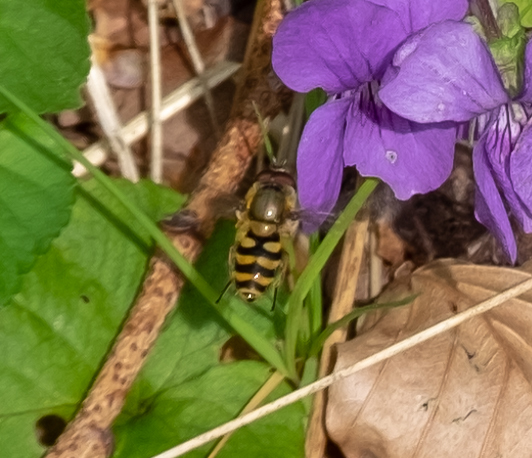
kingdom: Animalia
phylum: Arthropoda
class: Insecta
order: Diptera
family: Syrphidae
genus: Syrphus
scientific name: Syrphus
